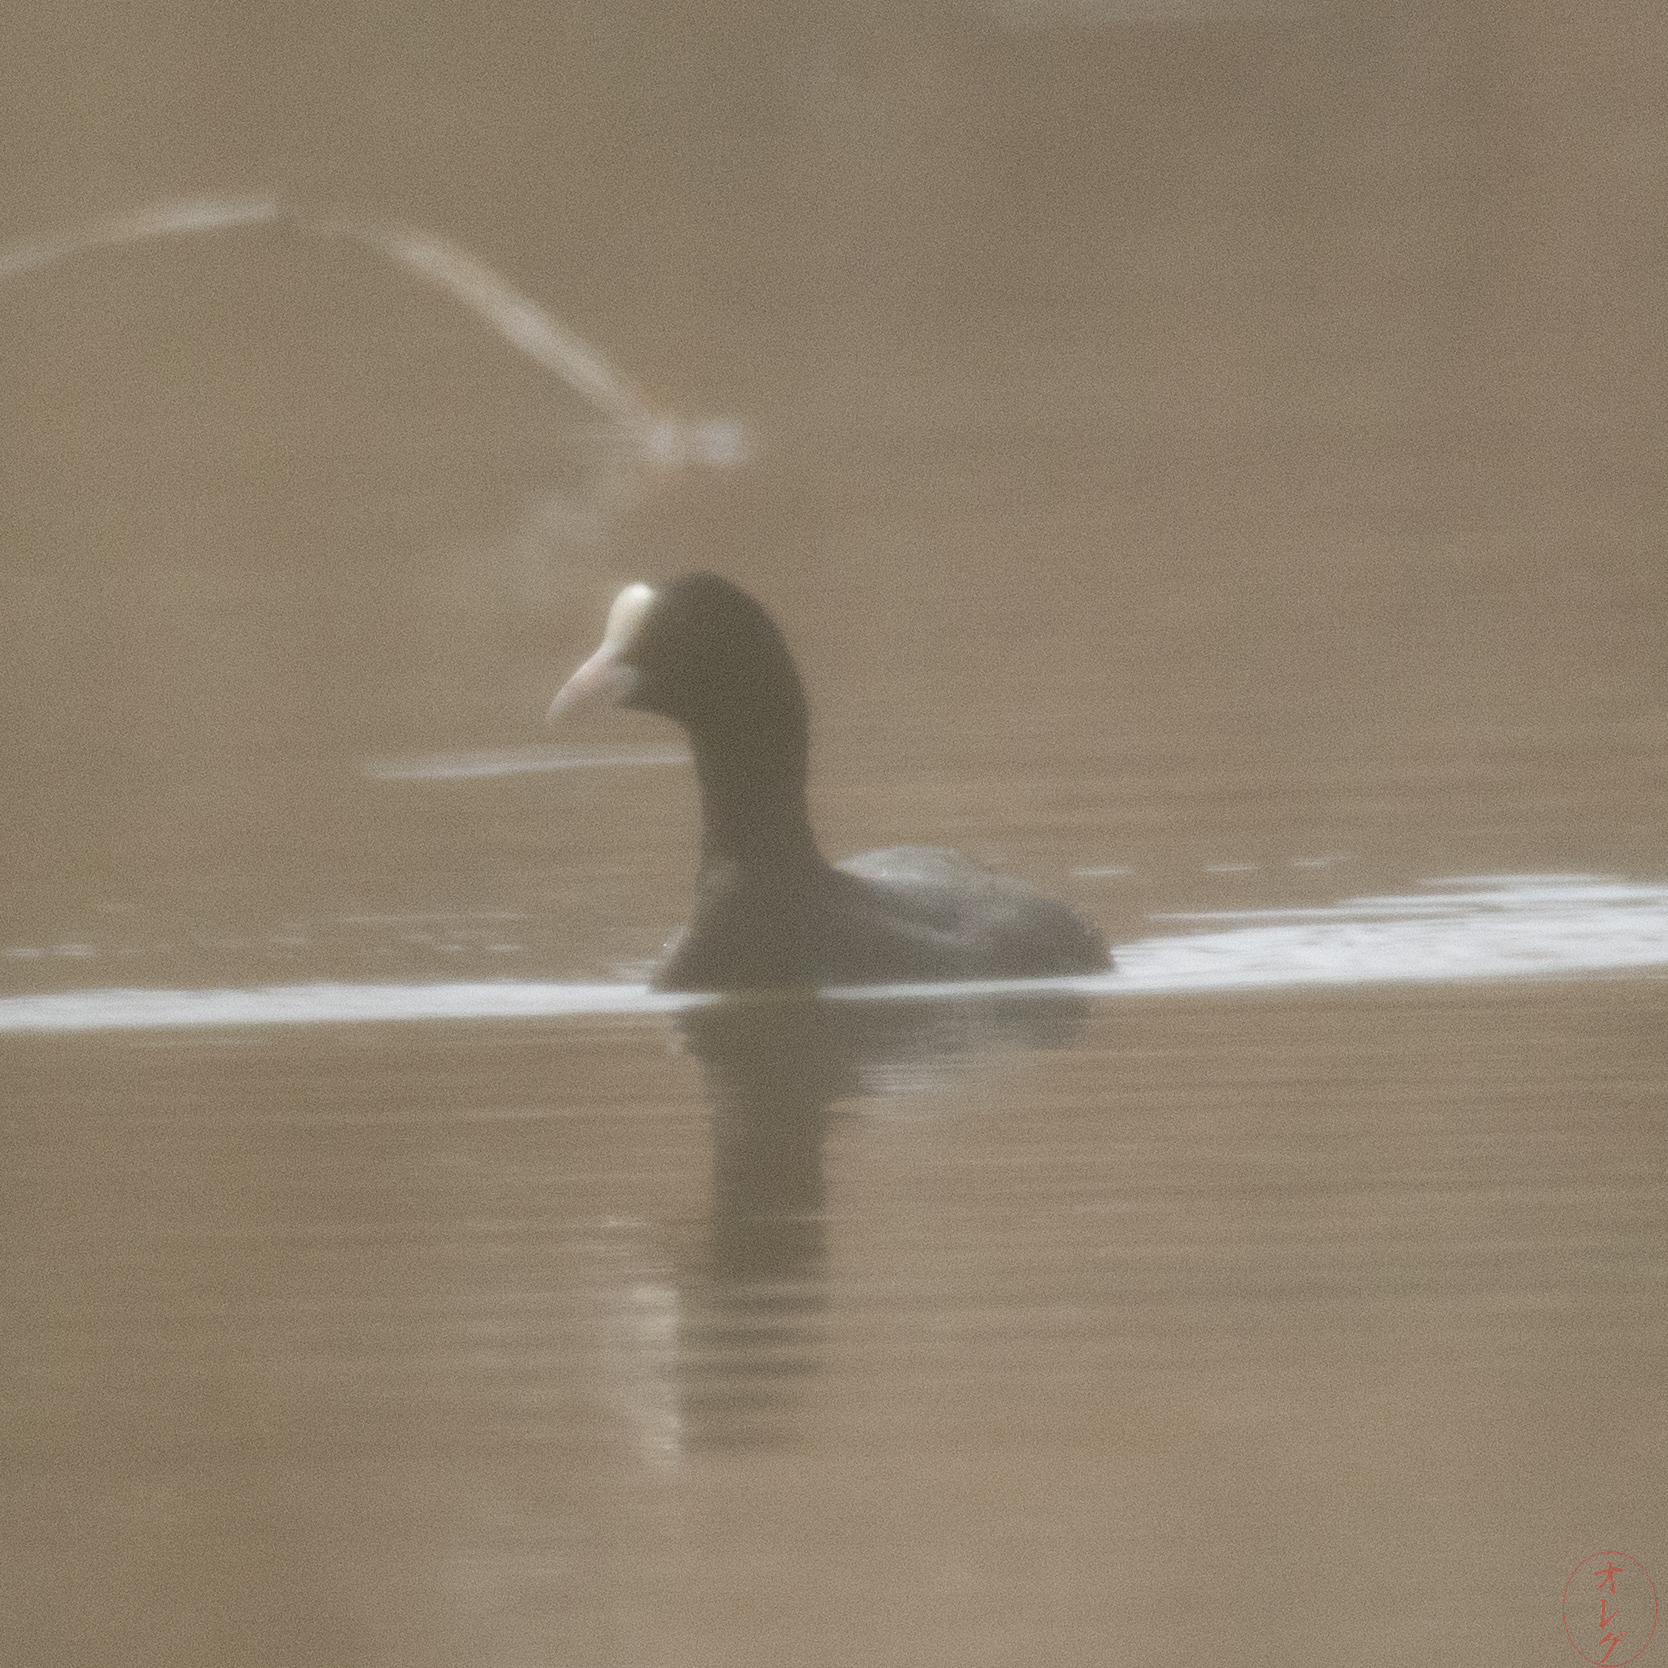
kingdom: Animalia
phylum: Chordata
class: Aves
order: Gruiformes
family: Rallidae
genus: Fulica
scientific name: Fulica atra
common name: Eurasian coot
